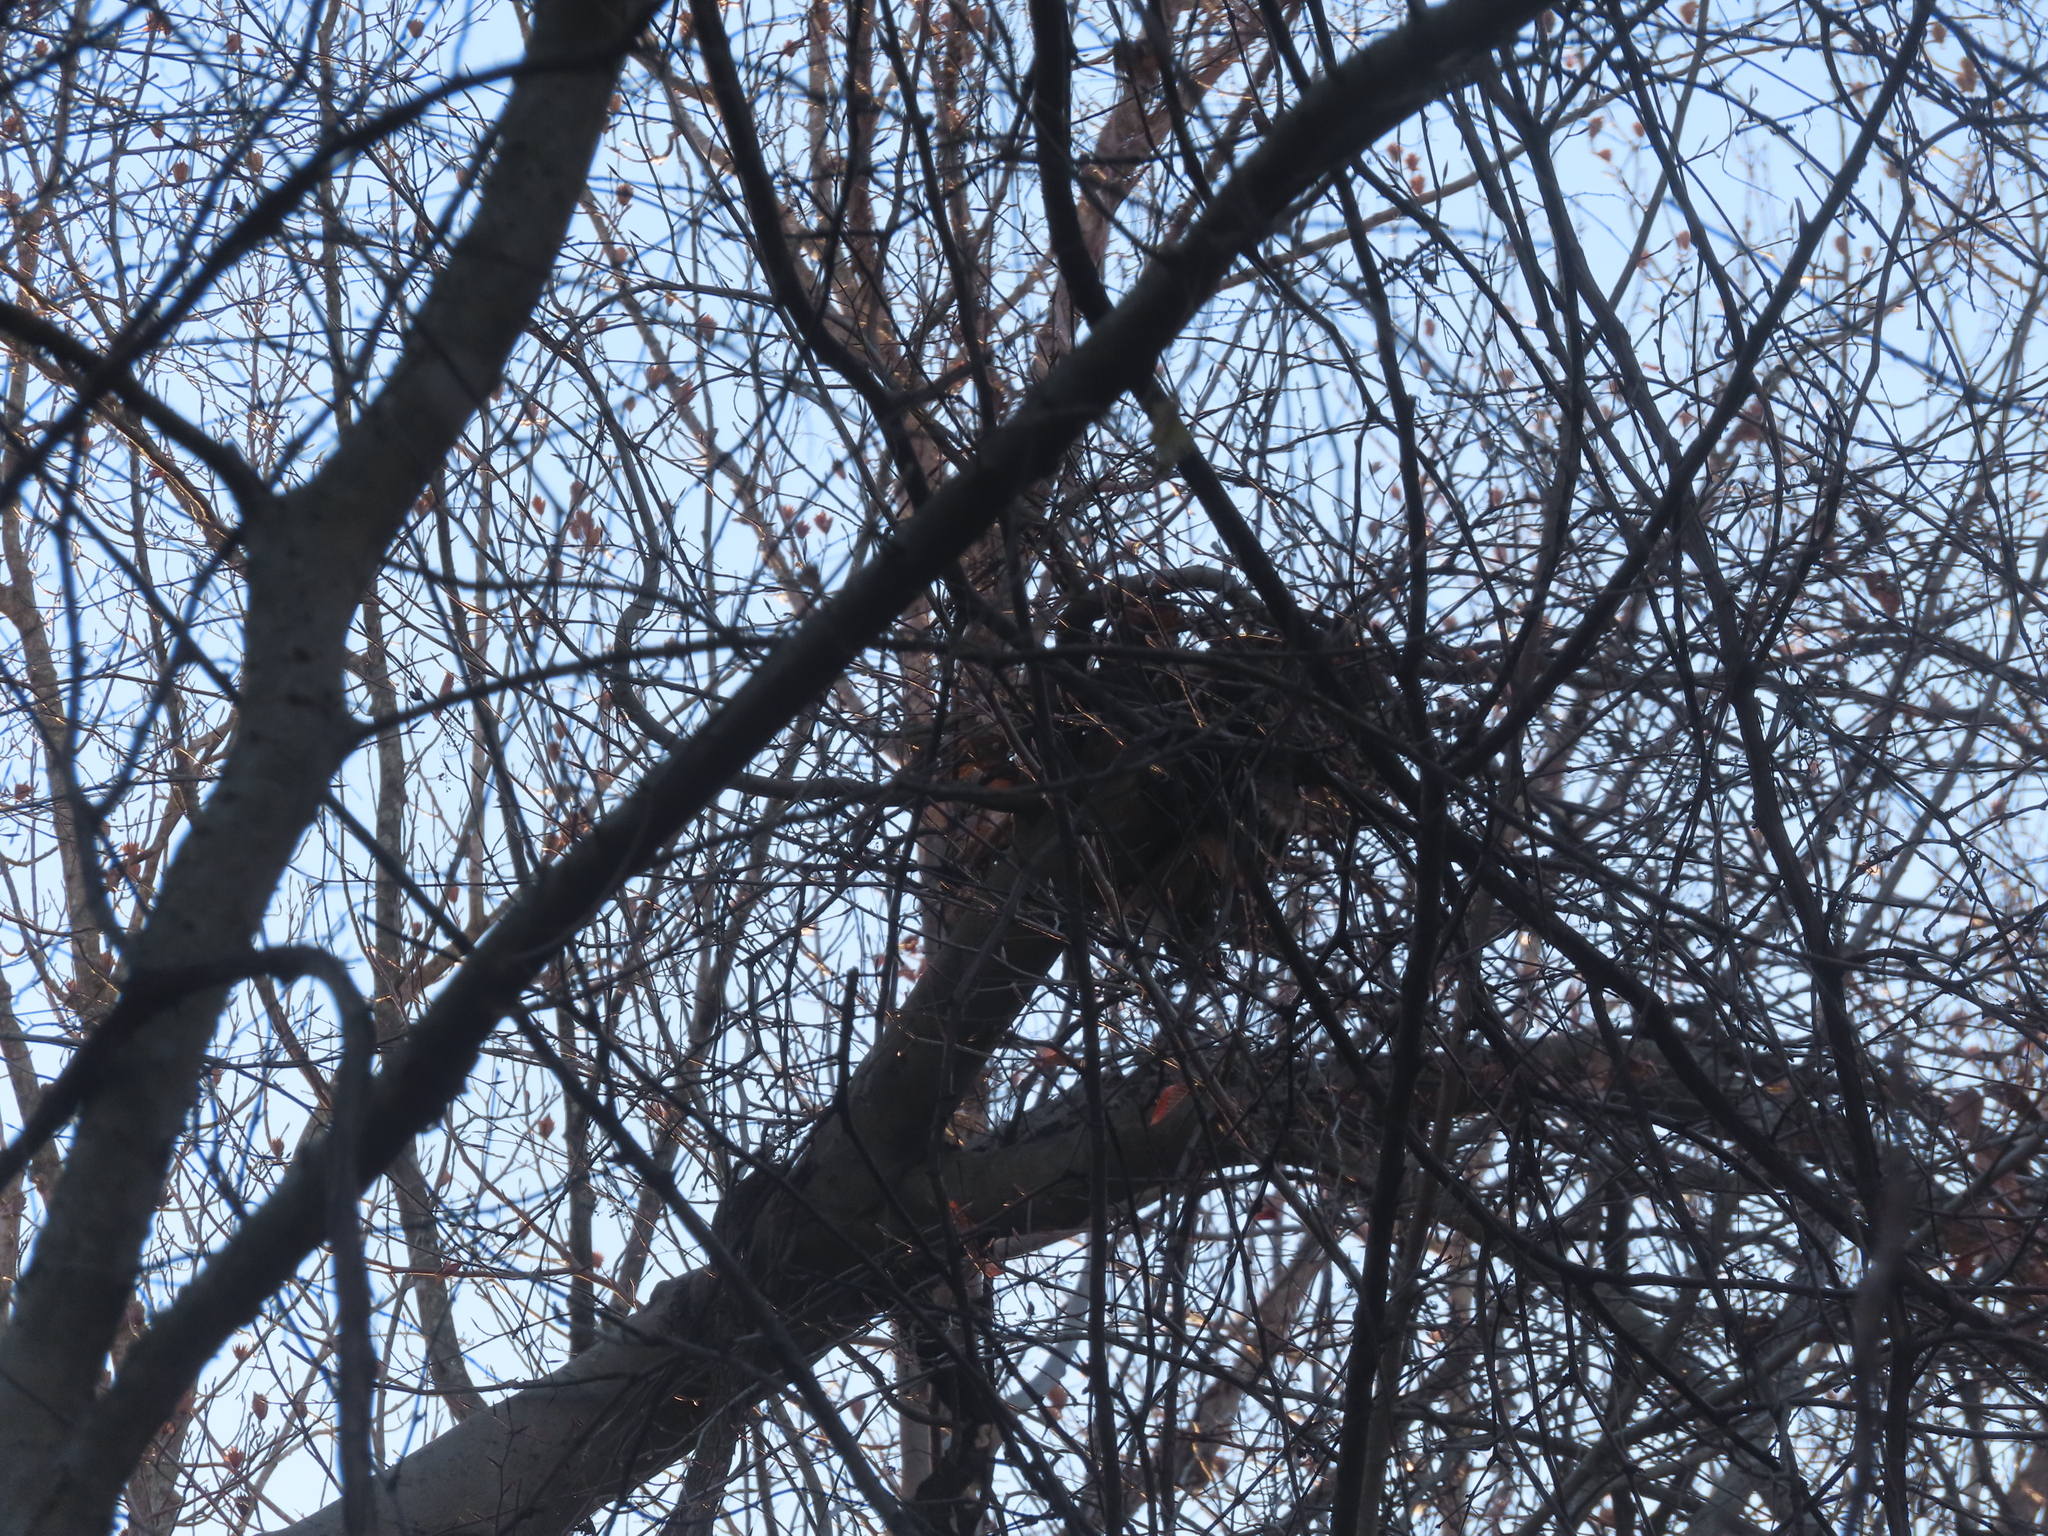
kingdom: Animalia
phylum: Chordata
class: Mammalia
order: Rodentia
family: Sciuridae
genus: Sciurus
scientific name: Sciurus carolinensis
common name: Eastern gray squirrel
